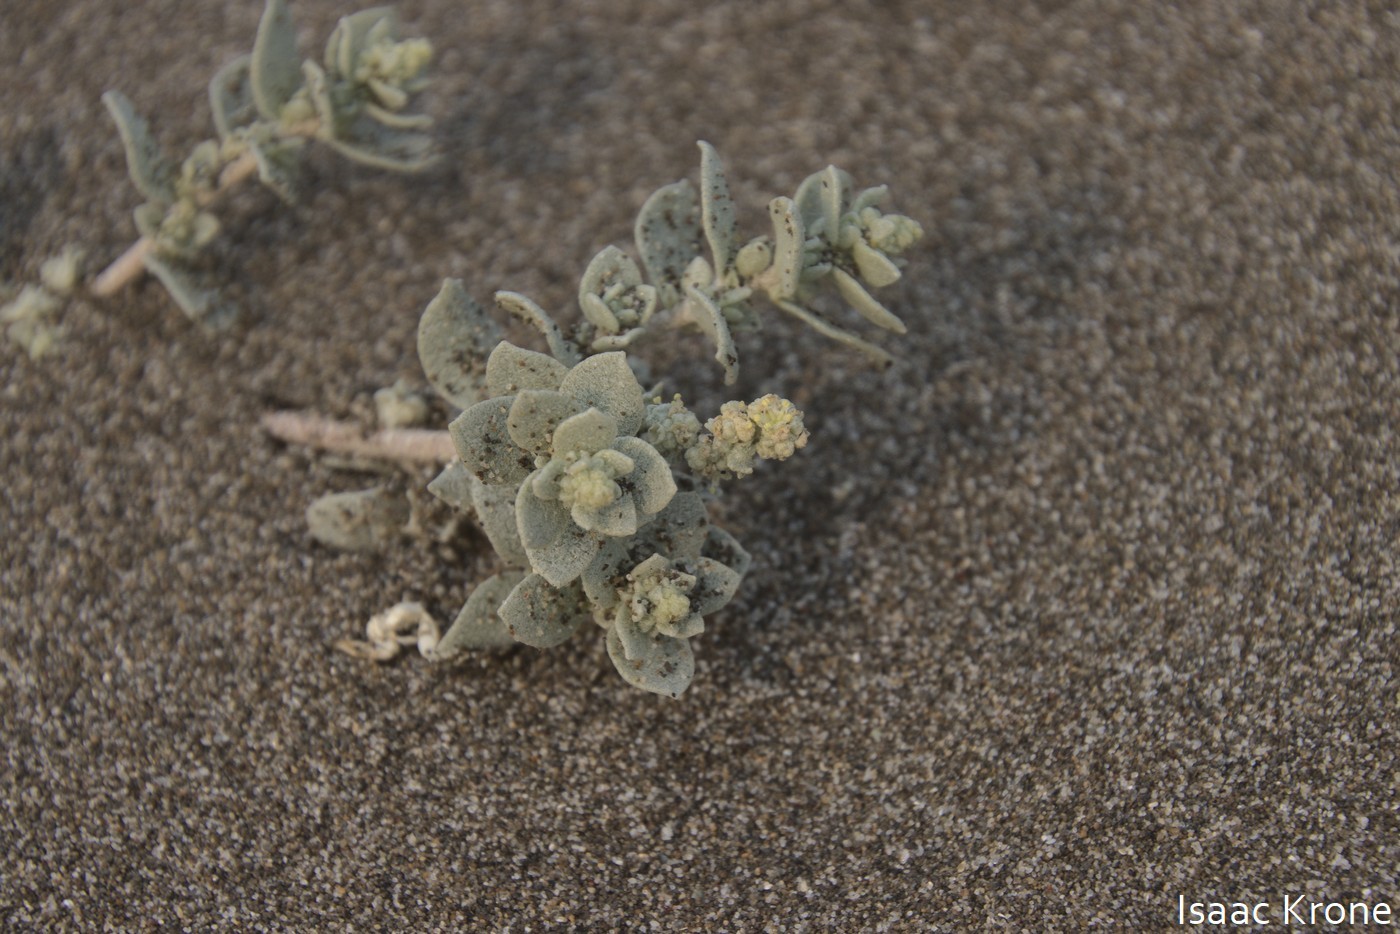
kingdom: Plantae
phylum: Tracheophyta
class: Magnoliopsida
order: Caryophyllales
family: Amaranthaceae
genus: Atriplex
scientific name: Atriplex leucophylla
